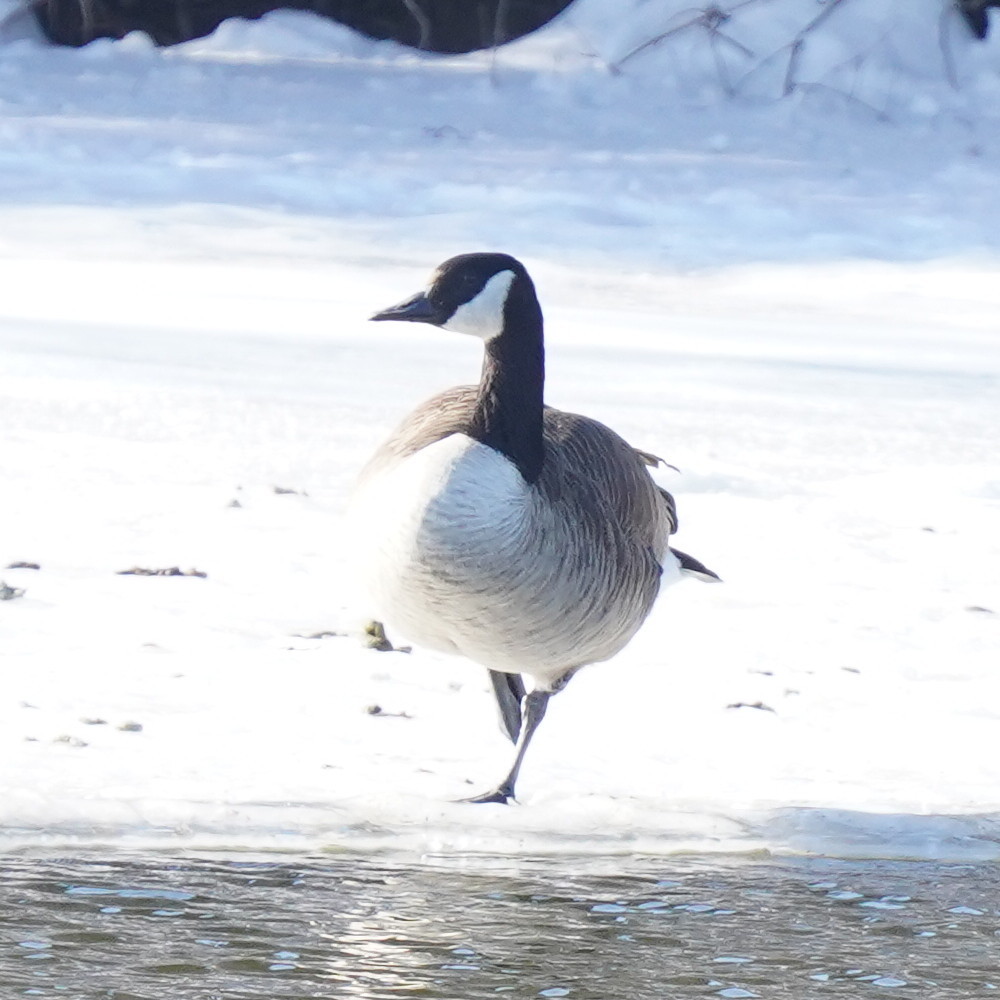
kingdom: Animalia
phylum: Chordata
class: Aves
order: Anseriformes
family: Anatidae
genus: Branta
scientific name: Branta canadensis
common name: Canada goose
